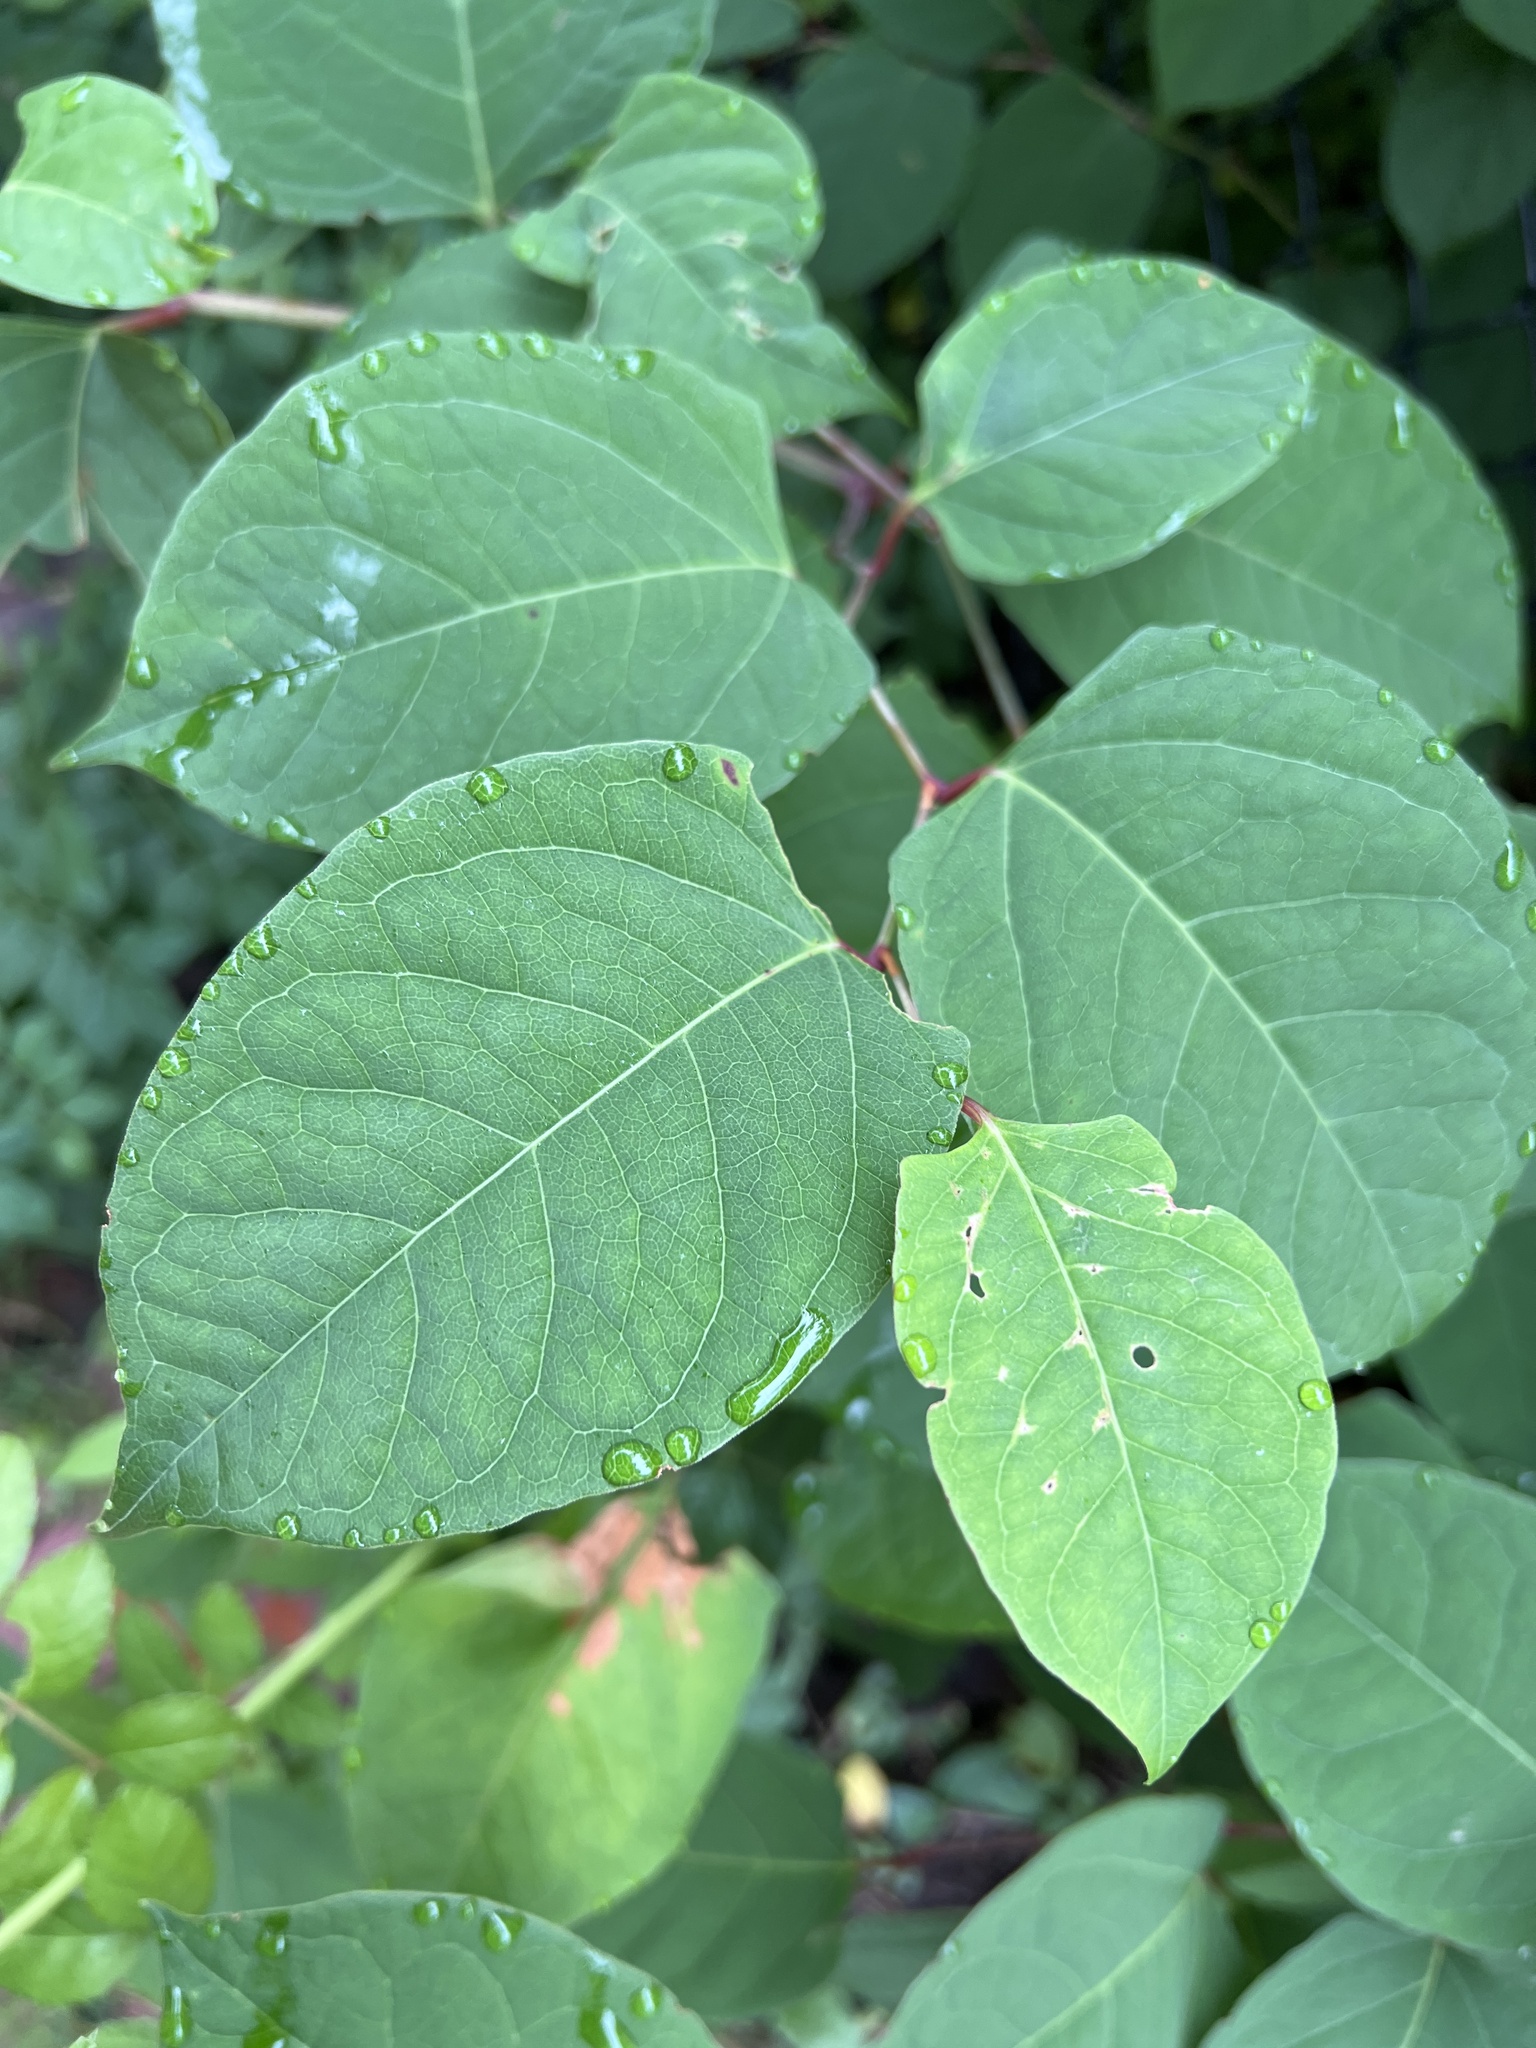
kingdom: Plantae
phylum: Tracheophyta
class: Magnoliopsida
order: Caryophyllales
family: Polygonaceae
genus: Reynoutria
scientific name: Reynoutria japonica
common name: Japanese knotweed
